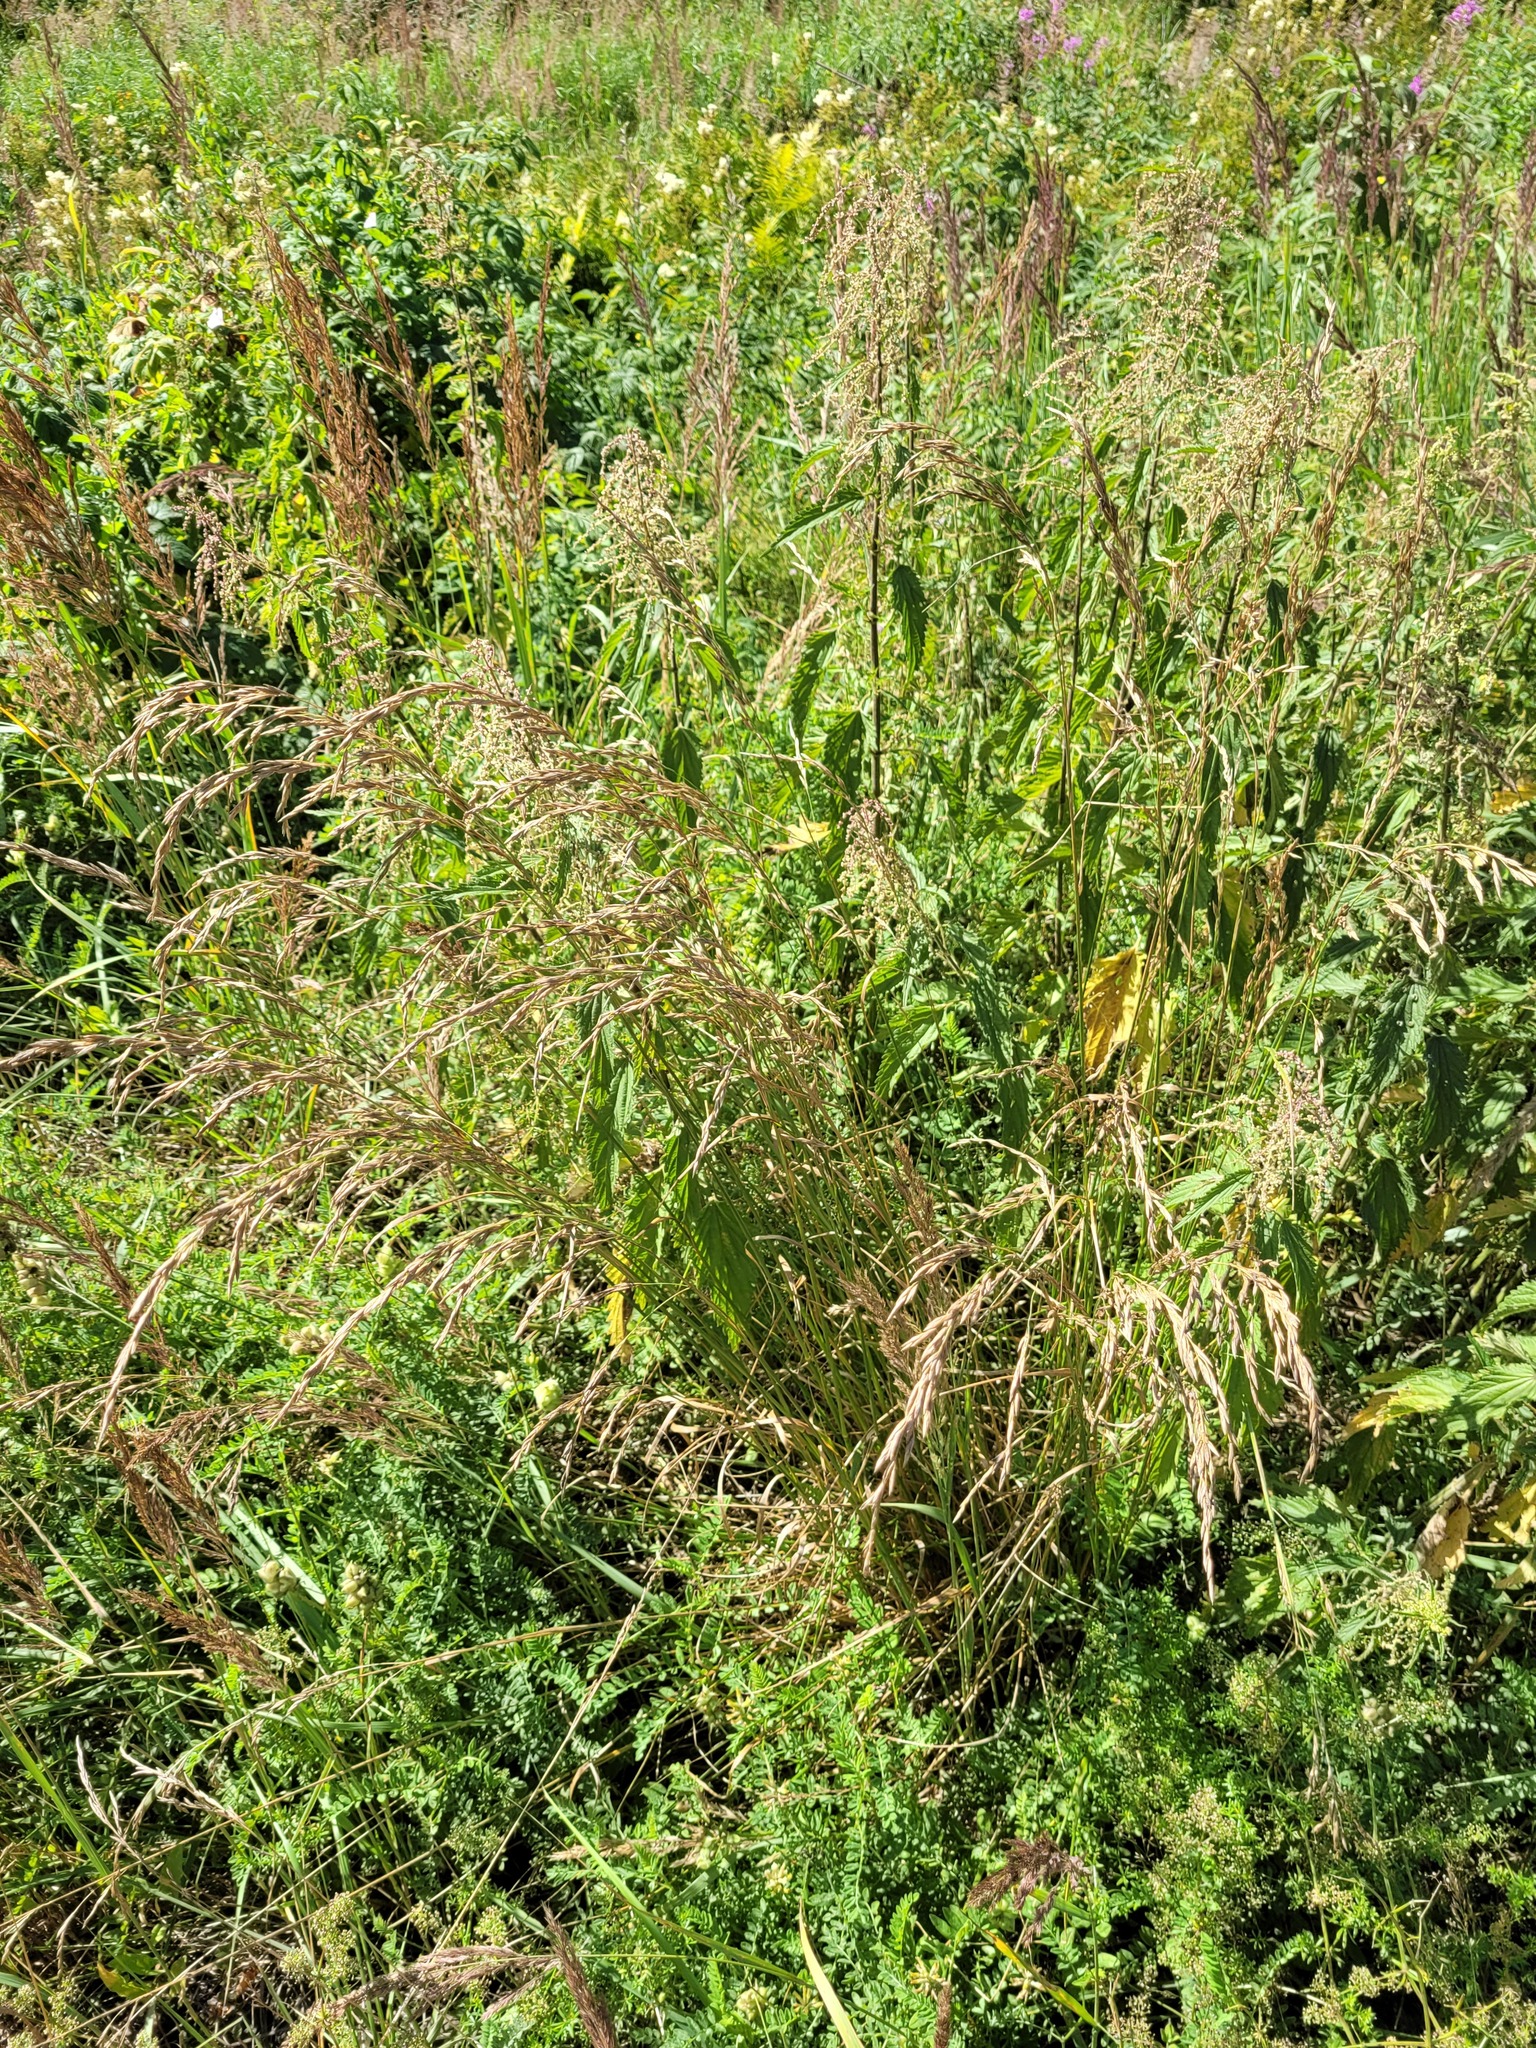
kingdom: Plantae
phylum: Tracheophyta
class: Liliopsida
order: Poales
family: Poaceae
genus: Lolium
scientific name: Lolium arundinaceum
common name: Reed fescue
